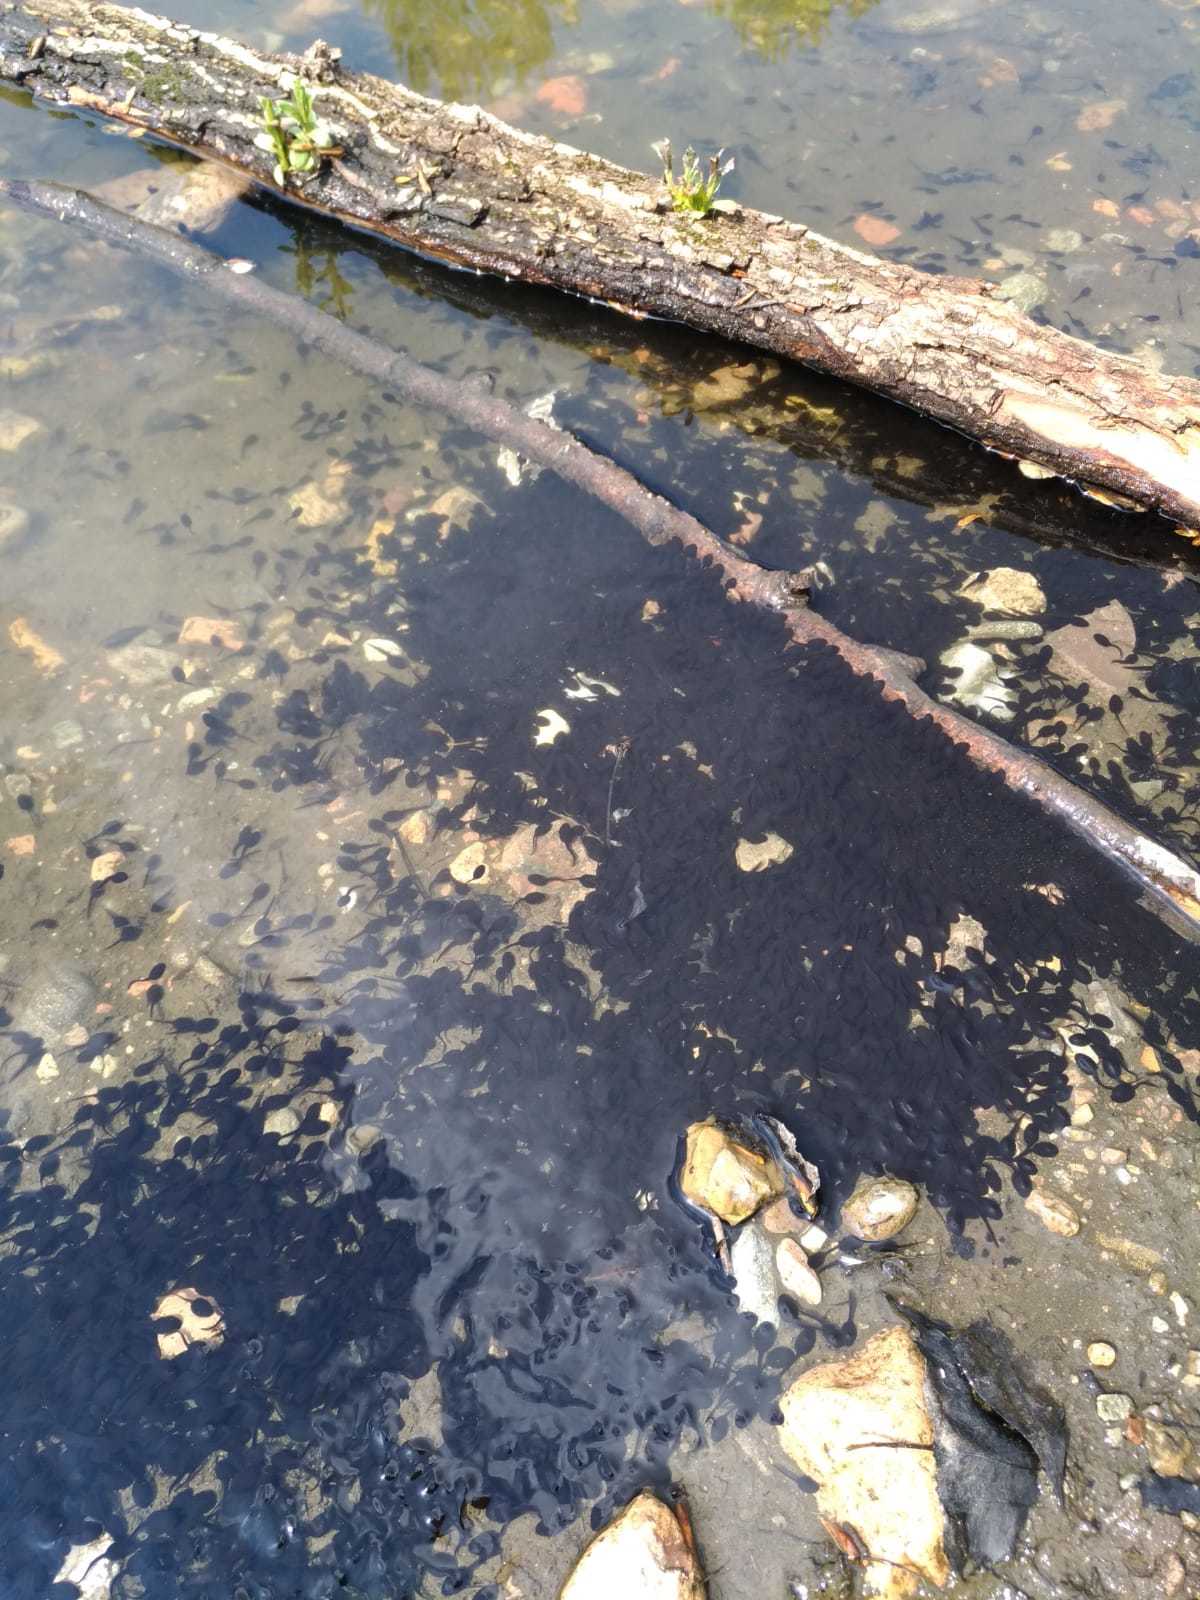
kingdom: Animalia
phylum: Chordata
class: Amphibia
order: Anura
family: Bufonidae
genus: Bufo
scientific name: Bufo bufo
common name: Common toad
